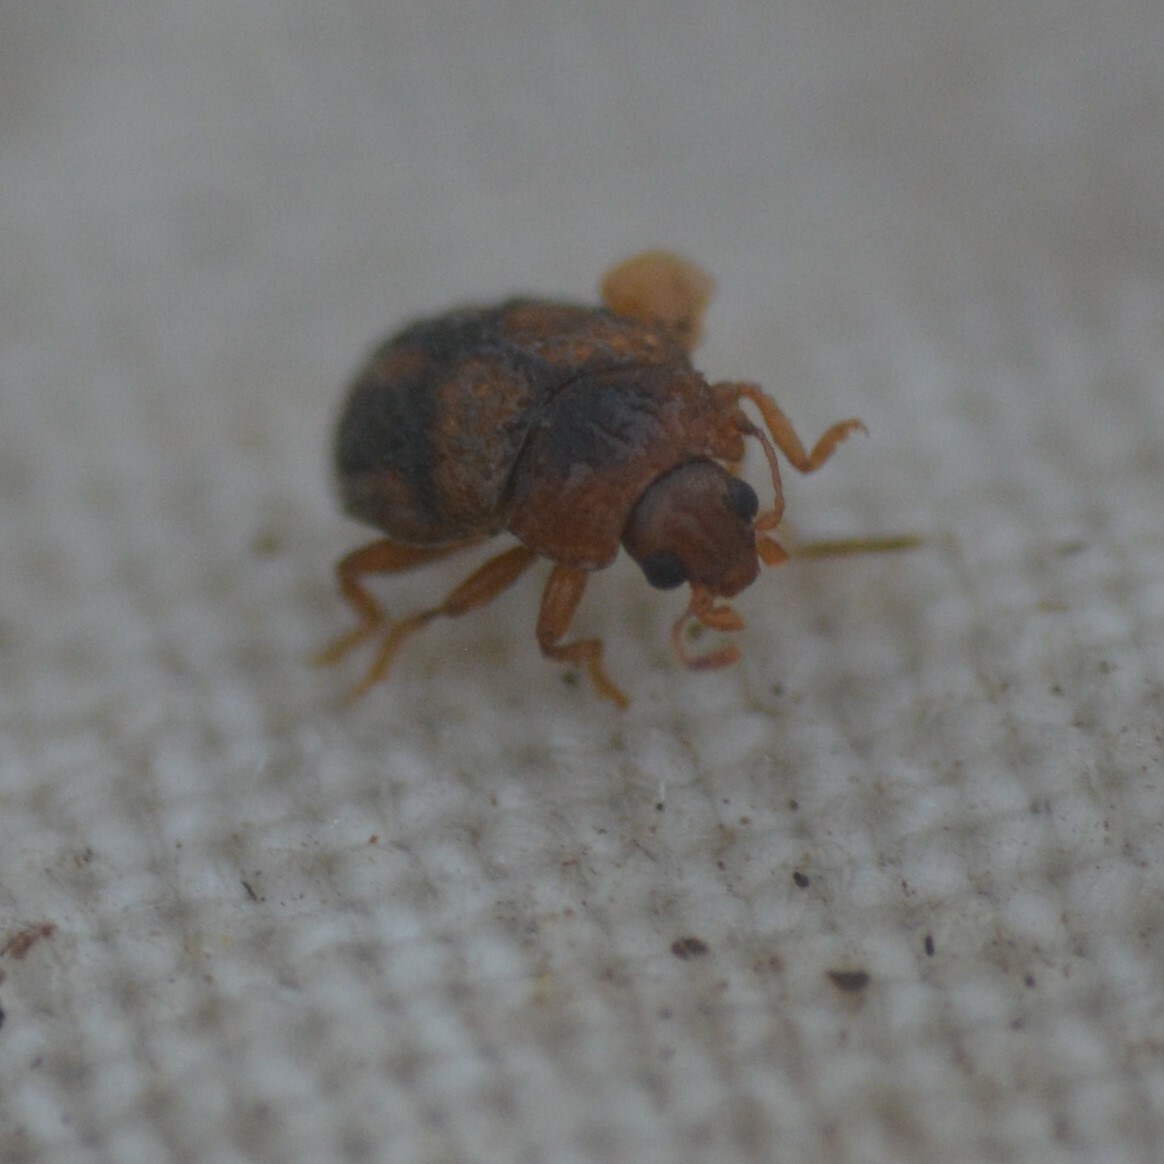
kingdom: Animalia
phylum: Arthropoda
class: Insecta
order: Coleoptera
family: Coccinellidae
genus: Rhyzobius
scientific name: Rhyzobius chrysomeloides
